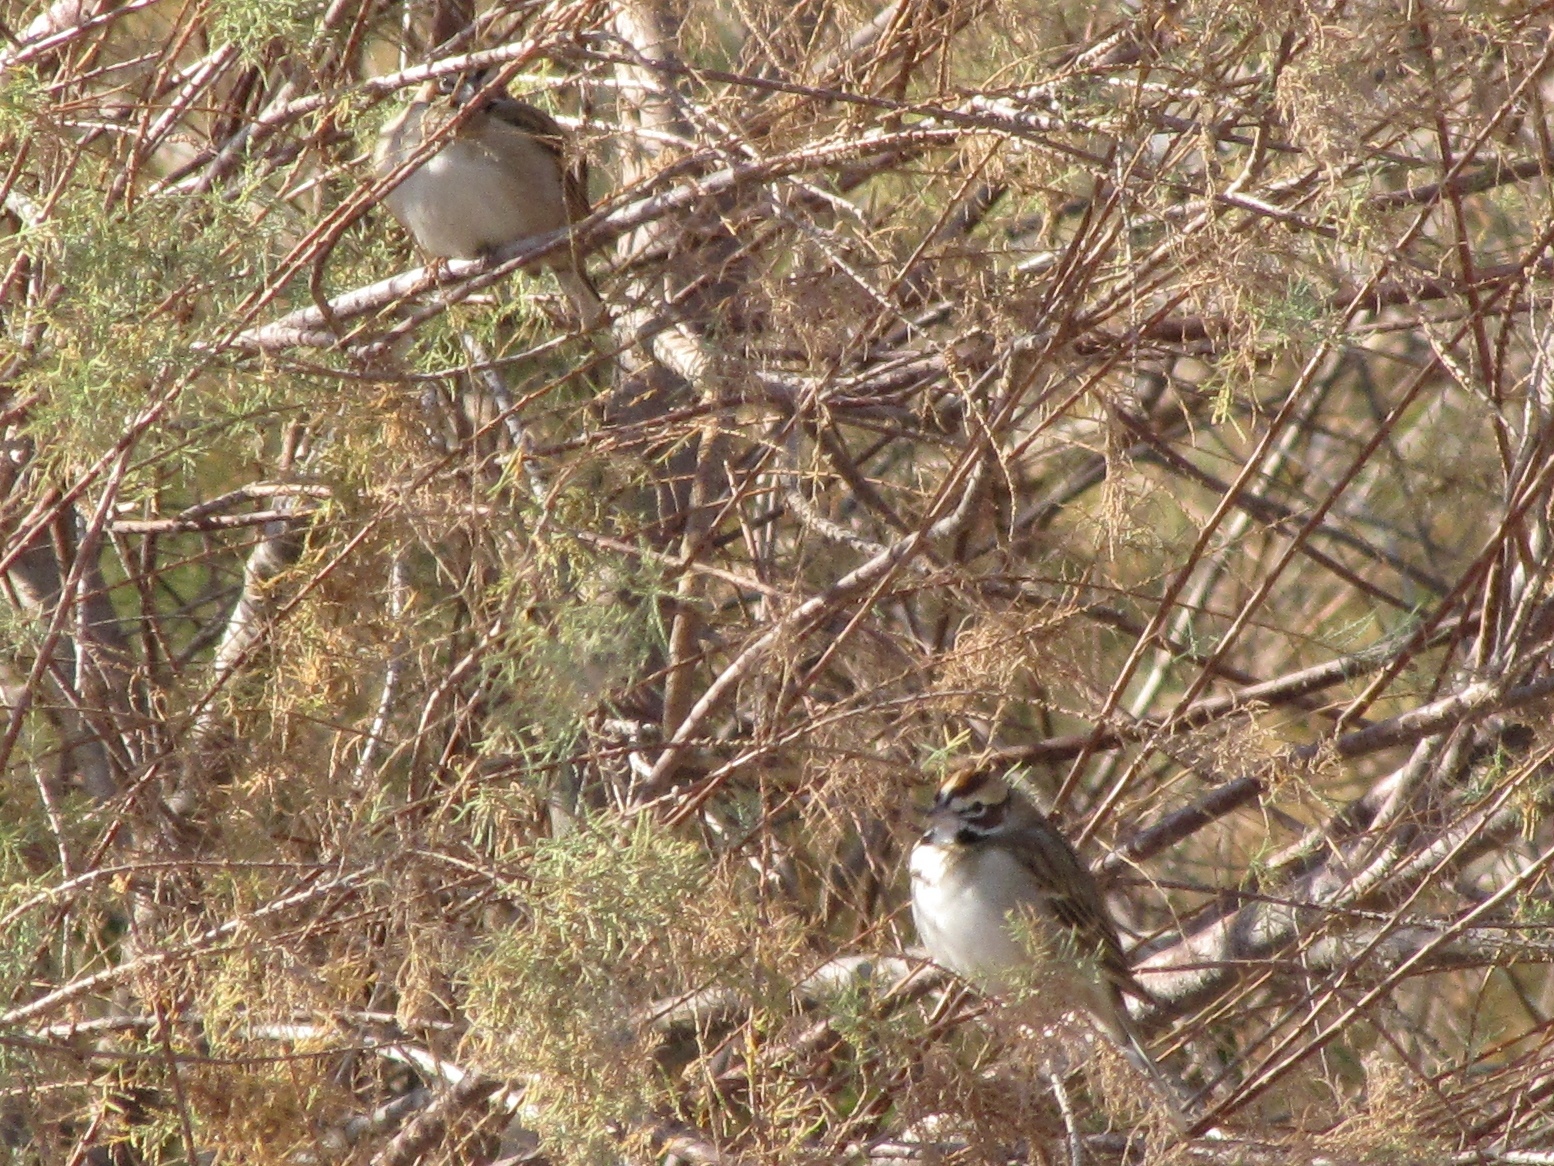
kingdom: Animalia
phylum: Chordata
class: Aves
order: Passeriformes
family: Passerellidae
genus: Chondestes
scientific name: Chondestes grammacus
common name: Lark sparrow
